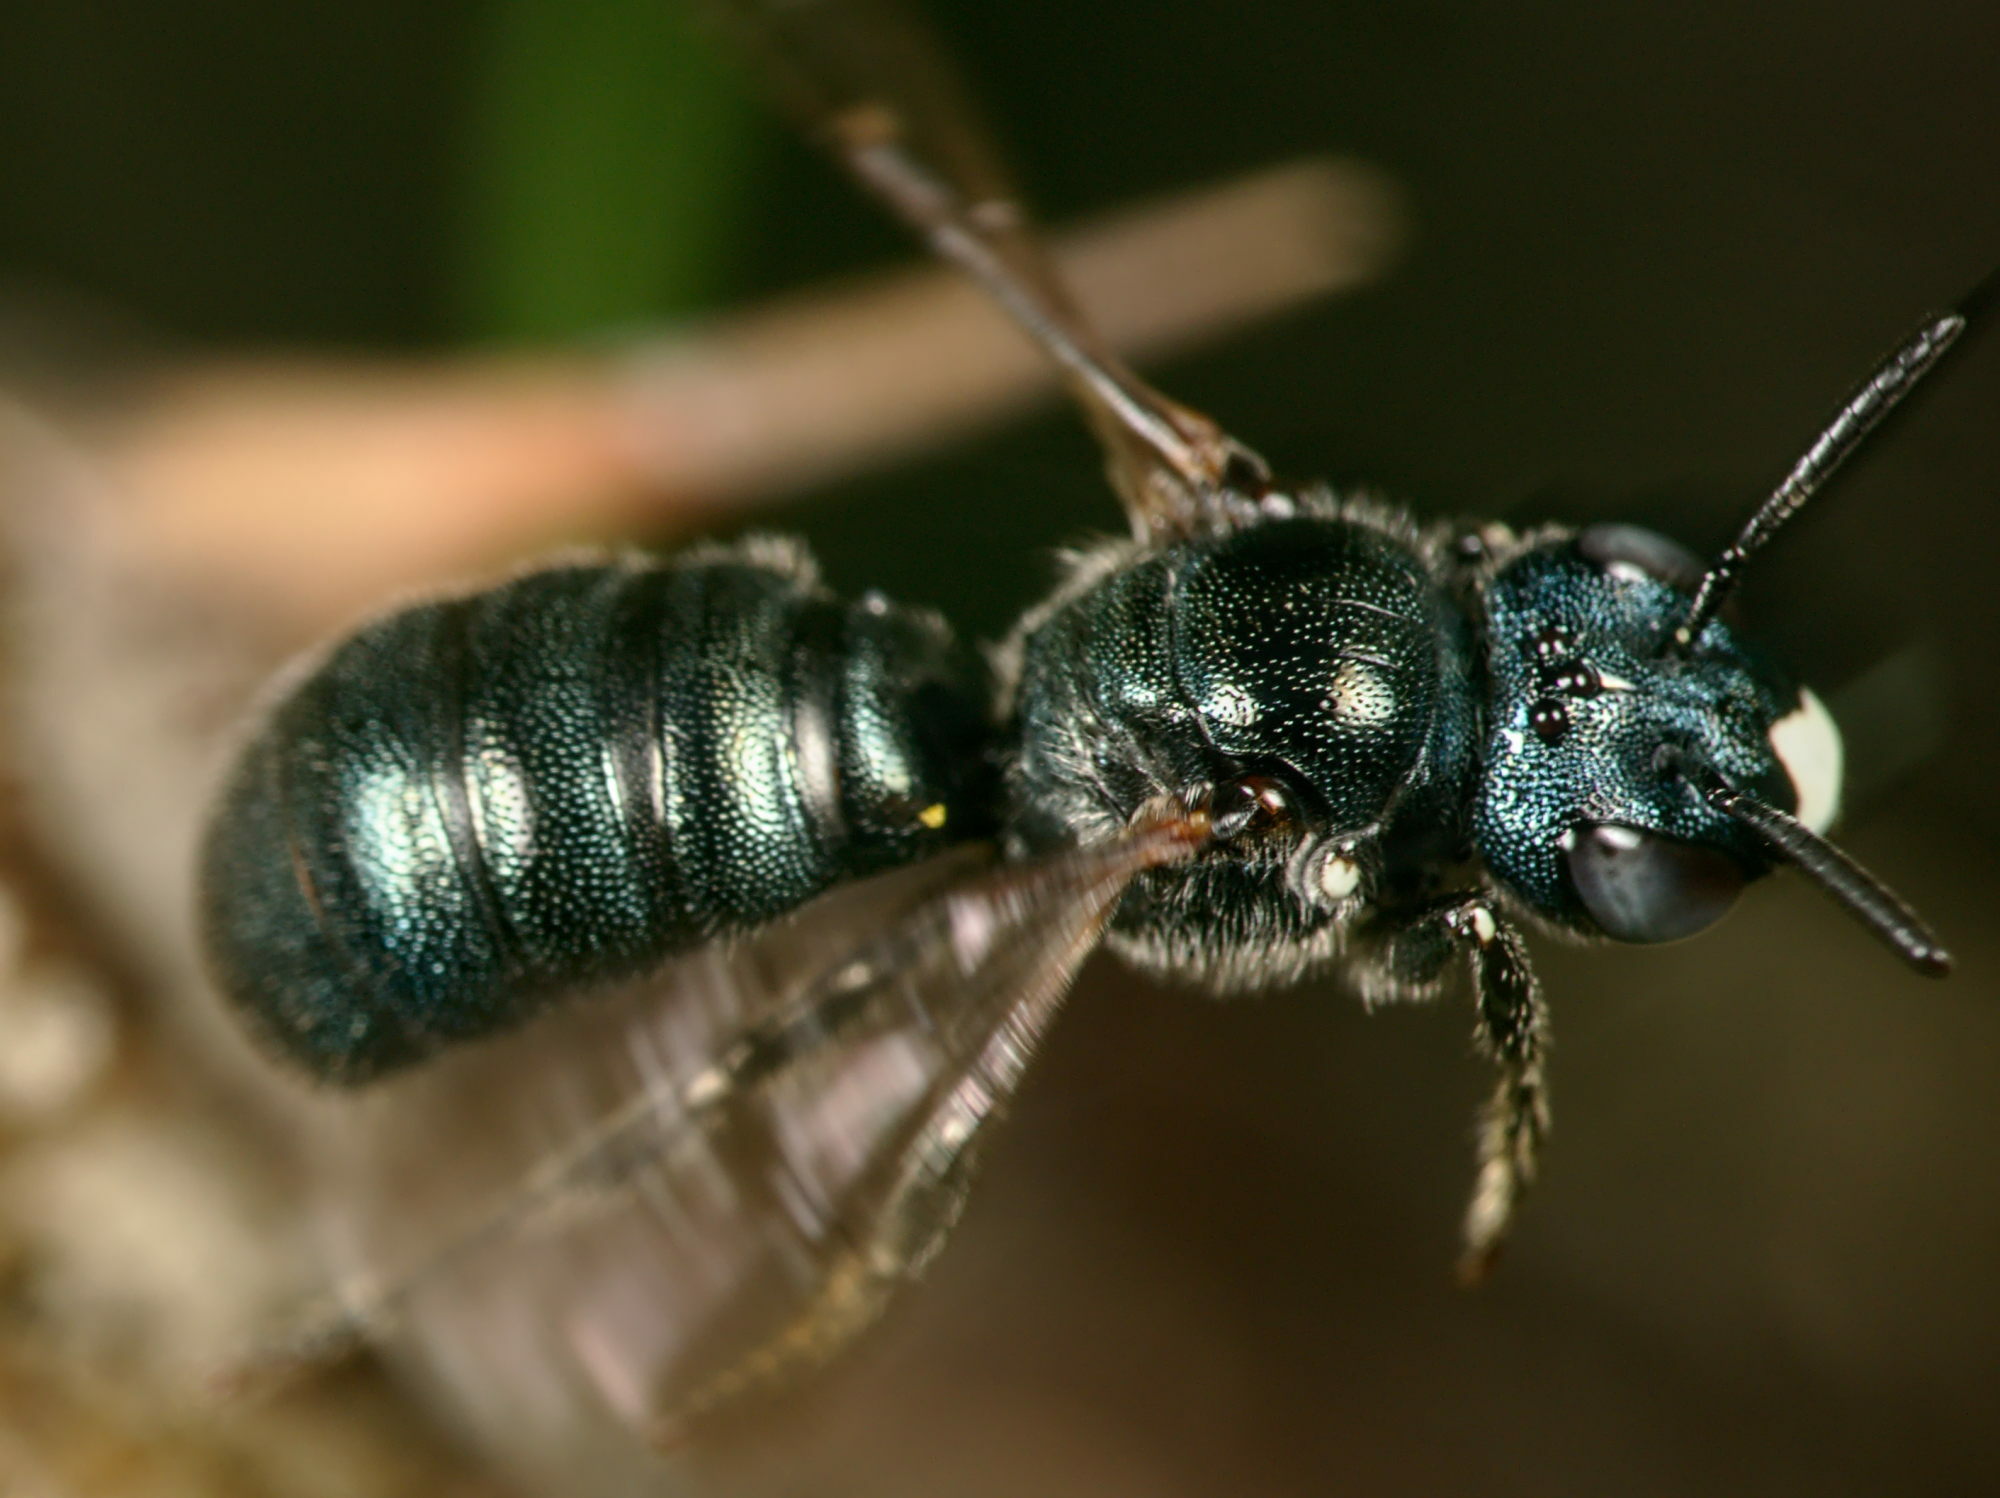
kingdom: Animalia
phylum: Arthropoda
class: Insecta
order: Hymenoptera
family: Apidae
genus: Ceratina
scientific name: Ceratina chalybea
